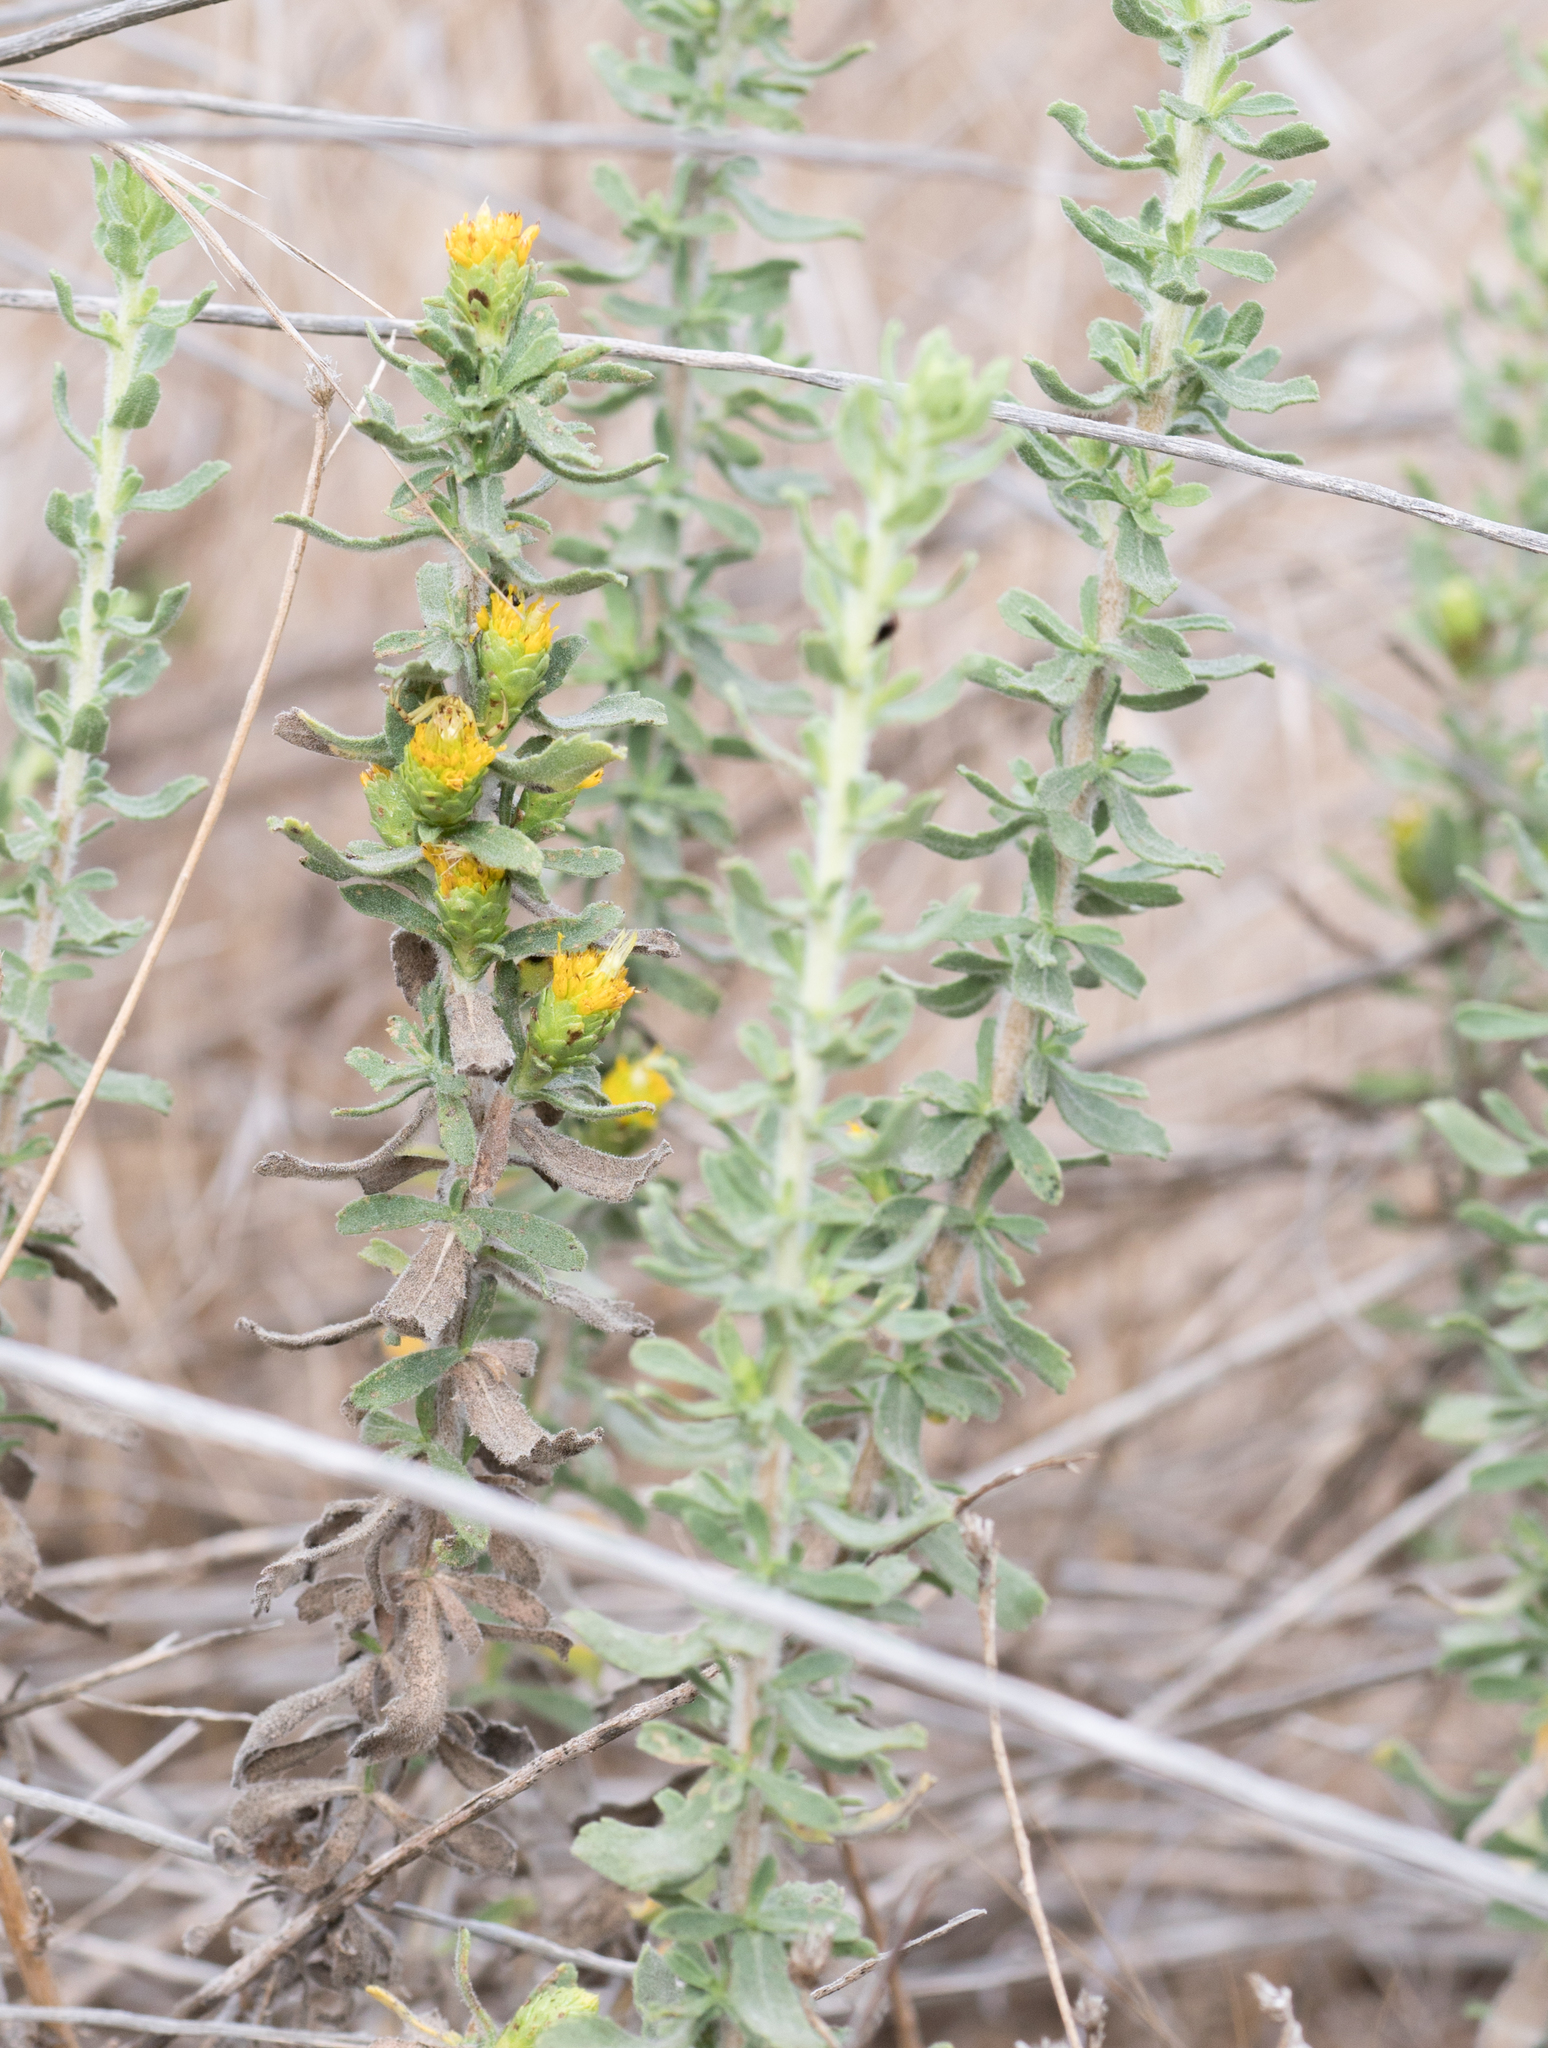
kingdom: Plantae
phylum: Tracheophyta
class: Magnoliopsida
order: Asterales
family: Asteraceae
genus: Isocoma
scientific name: Isocoma menziesii
